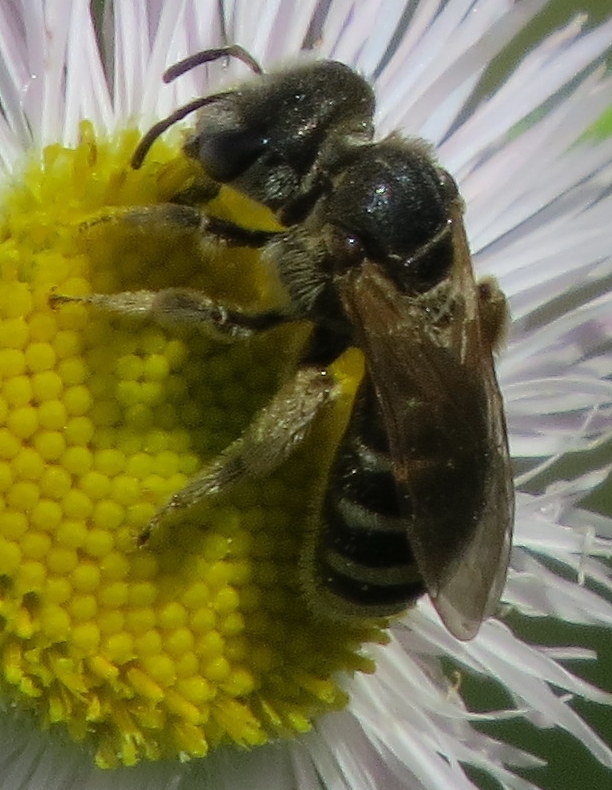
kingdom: Animalia
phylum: Arthropoda
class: Insecta
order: Hymenoptera
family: Halictidae
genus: Halictus
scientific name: Halictus ligatus
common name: Ligated furrow bee
